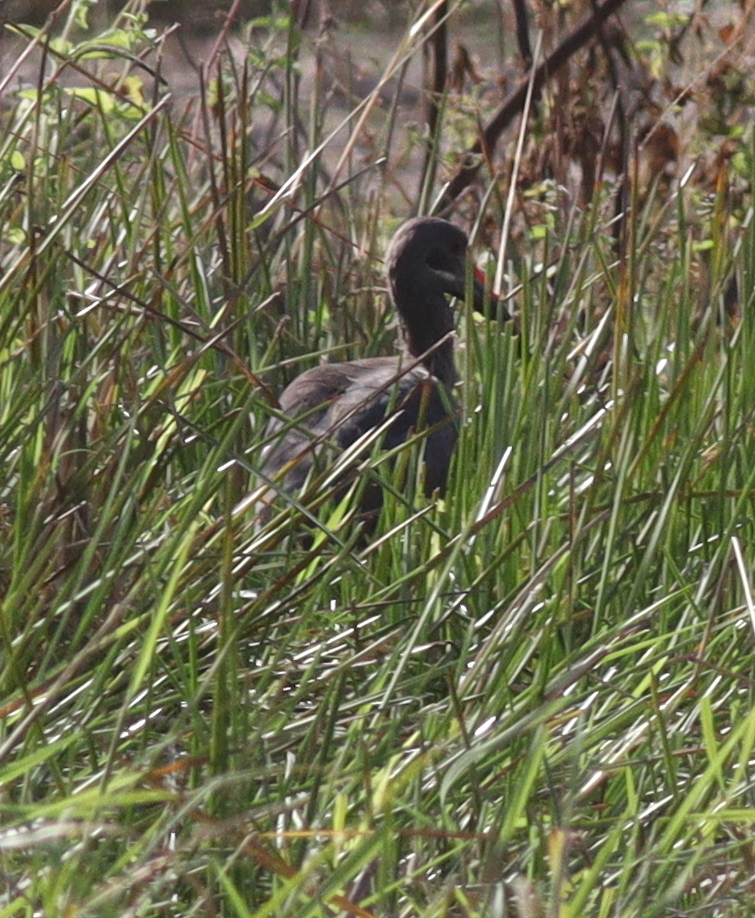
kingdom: Animalia
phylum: Chordata
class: Aves
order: Pelecaniformes
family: Threskiornithidae
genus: Bostrychia
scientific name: Bostrychia hagedash
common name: Hadada ibis
